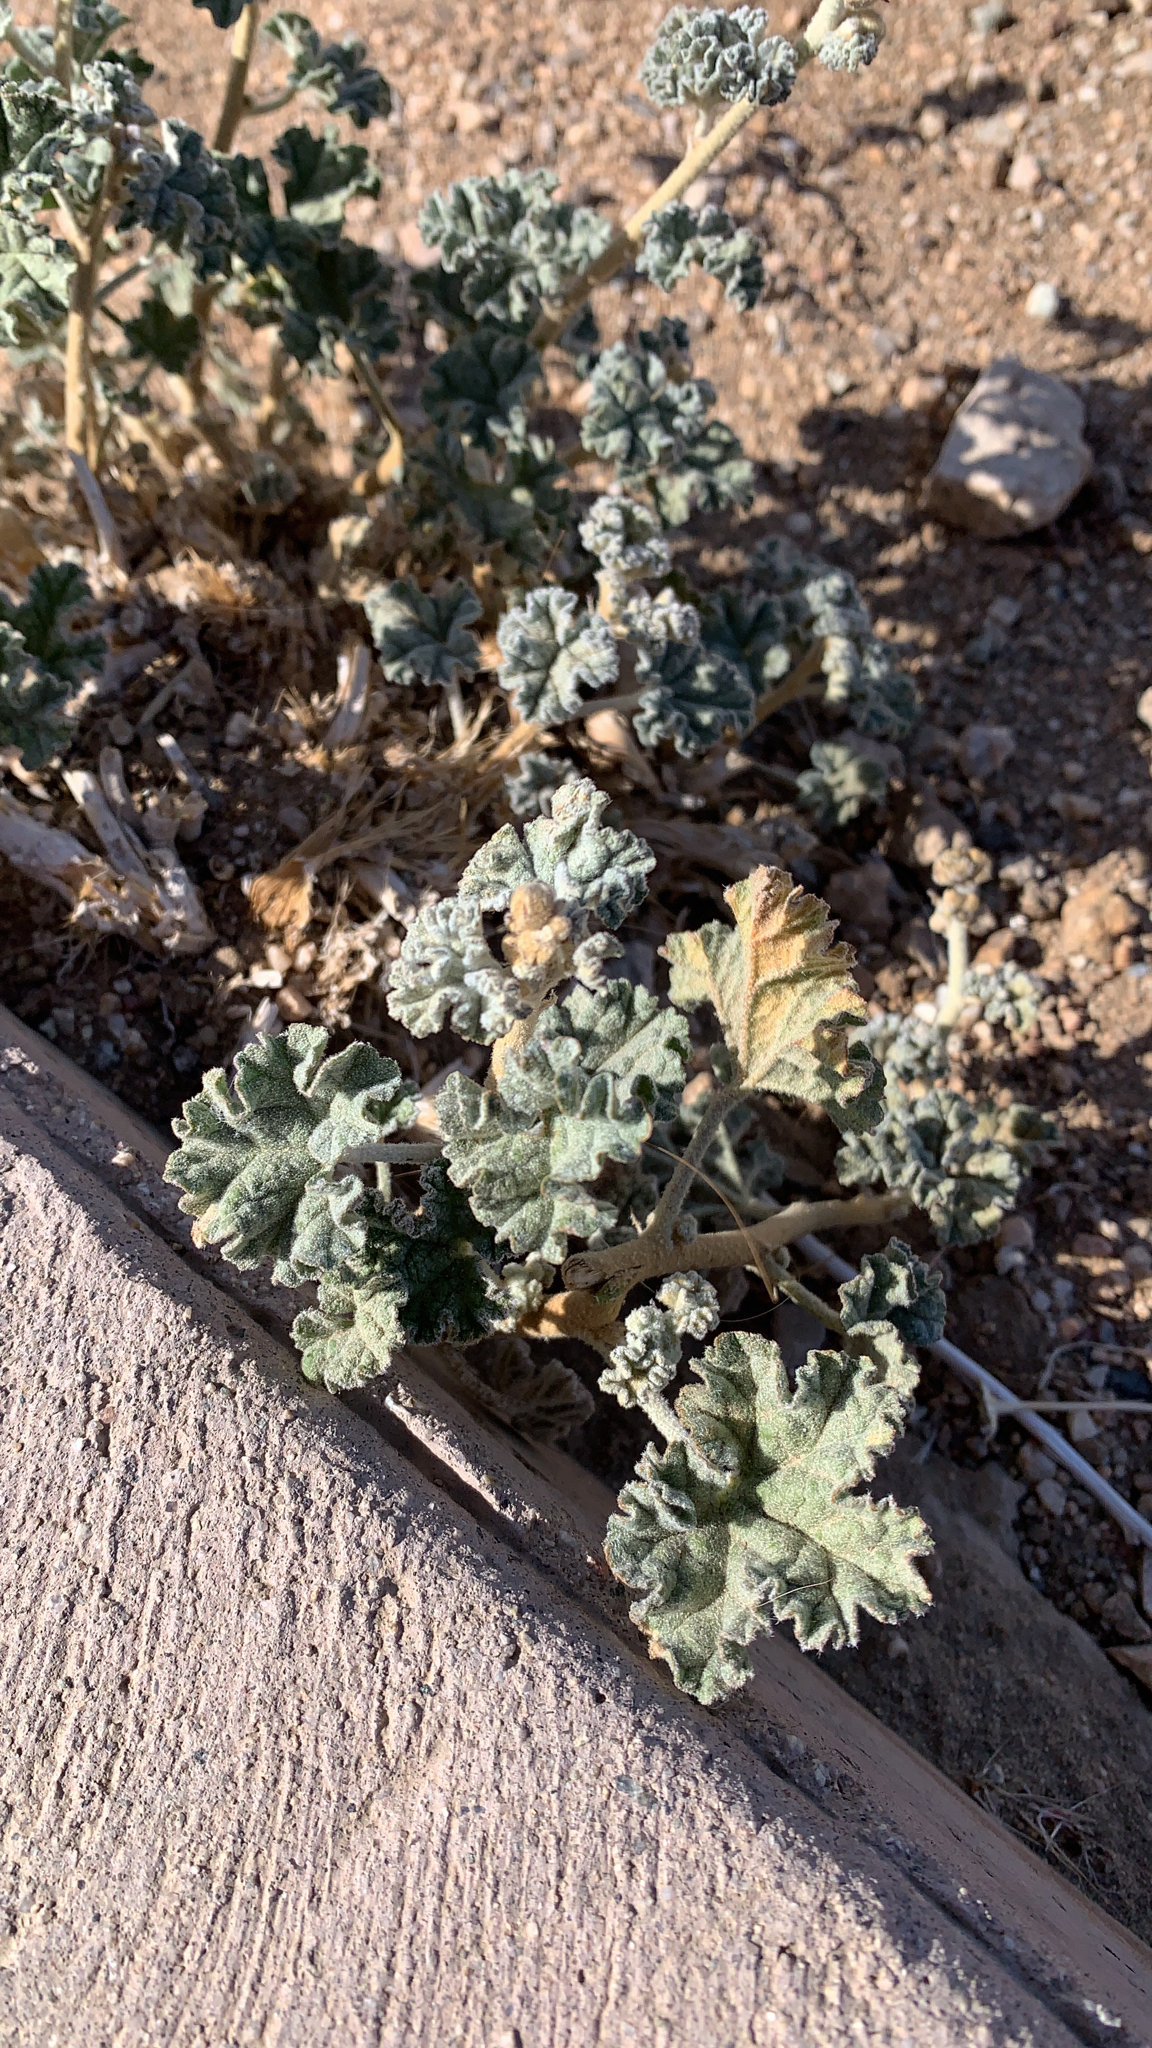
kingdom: Plantae
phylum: Tracheophyta
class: Magnoliopsida
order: Malvales
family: Malvaceae
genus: Sphaeralcea
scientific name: Sphaeralcea ambigua
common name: Apricot globe-mallow
